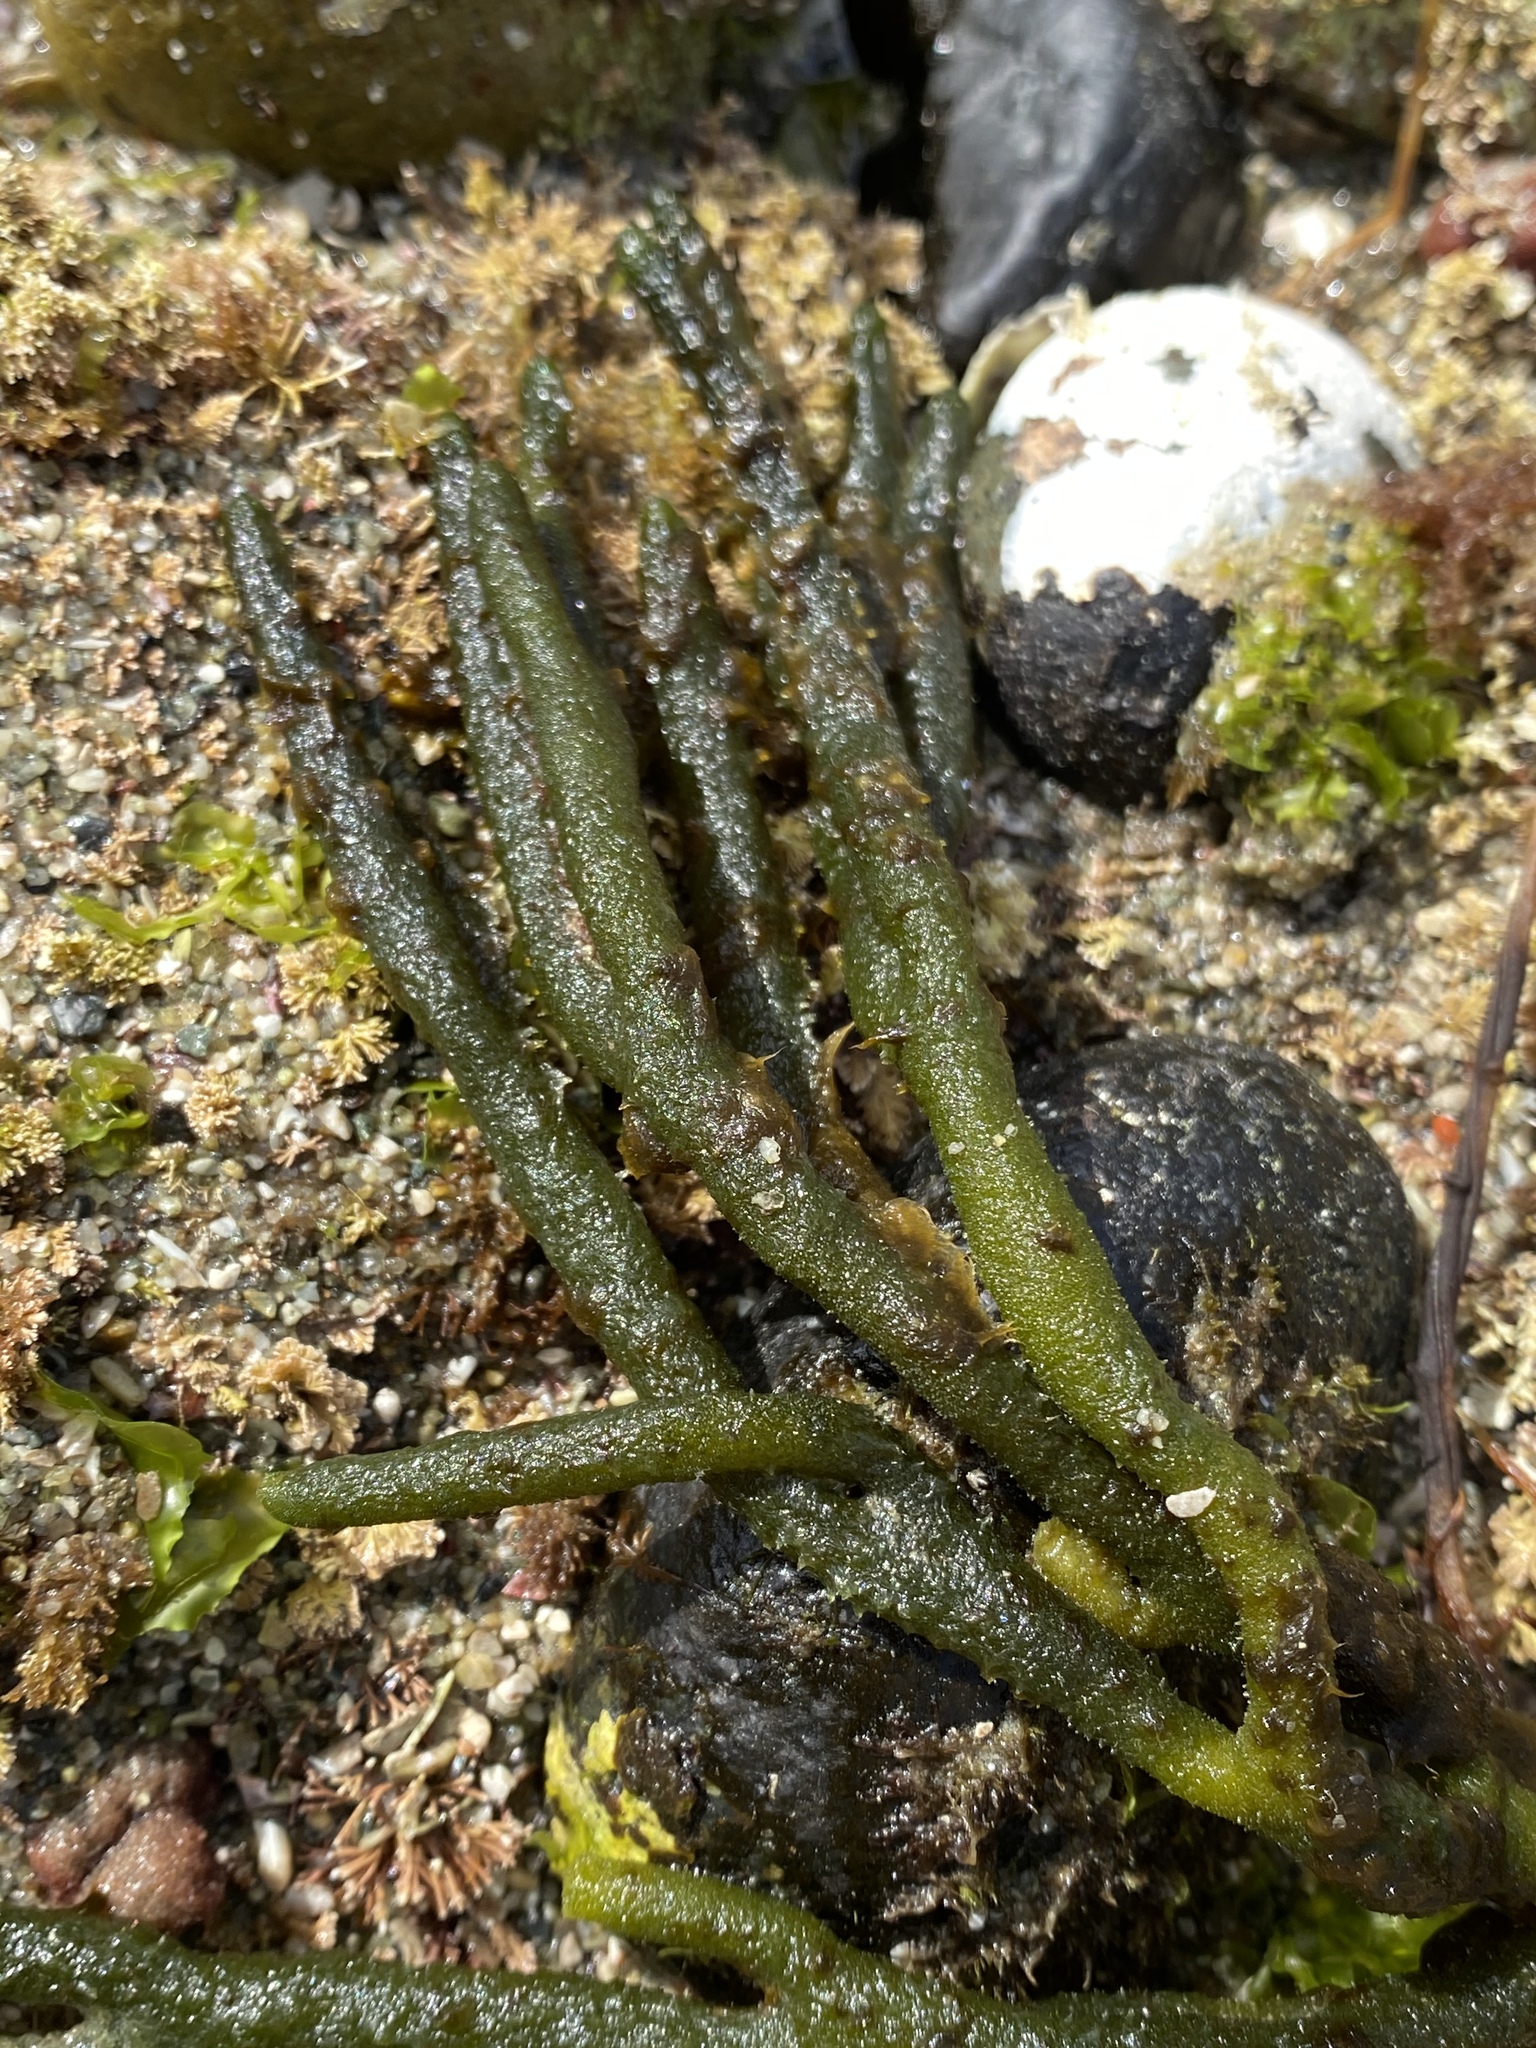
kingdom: Plantae
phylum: Chlorophyta
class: Ulvophyceae
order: Bryopsidales
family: Codiaceae
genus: Codium
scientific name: Codium fragile
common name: Dead man's fingers
